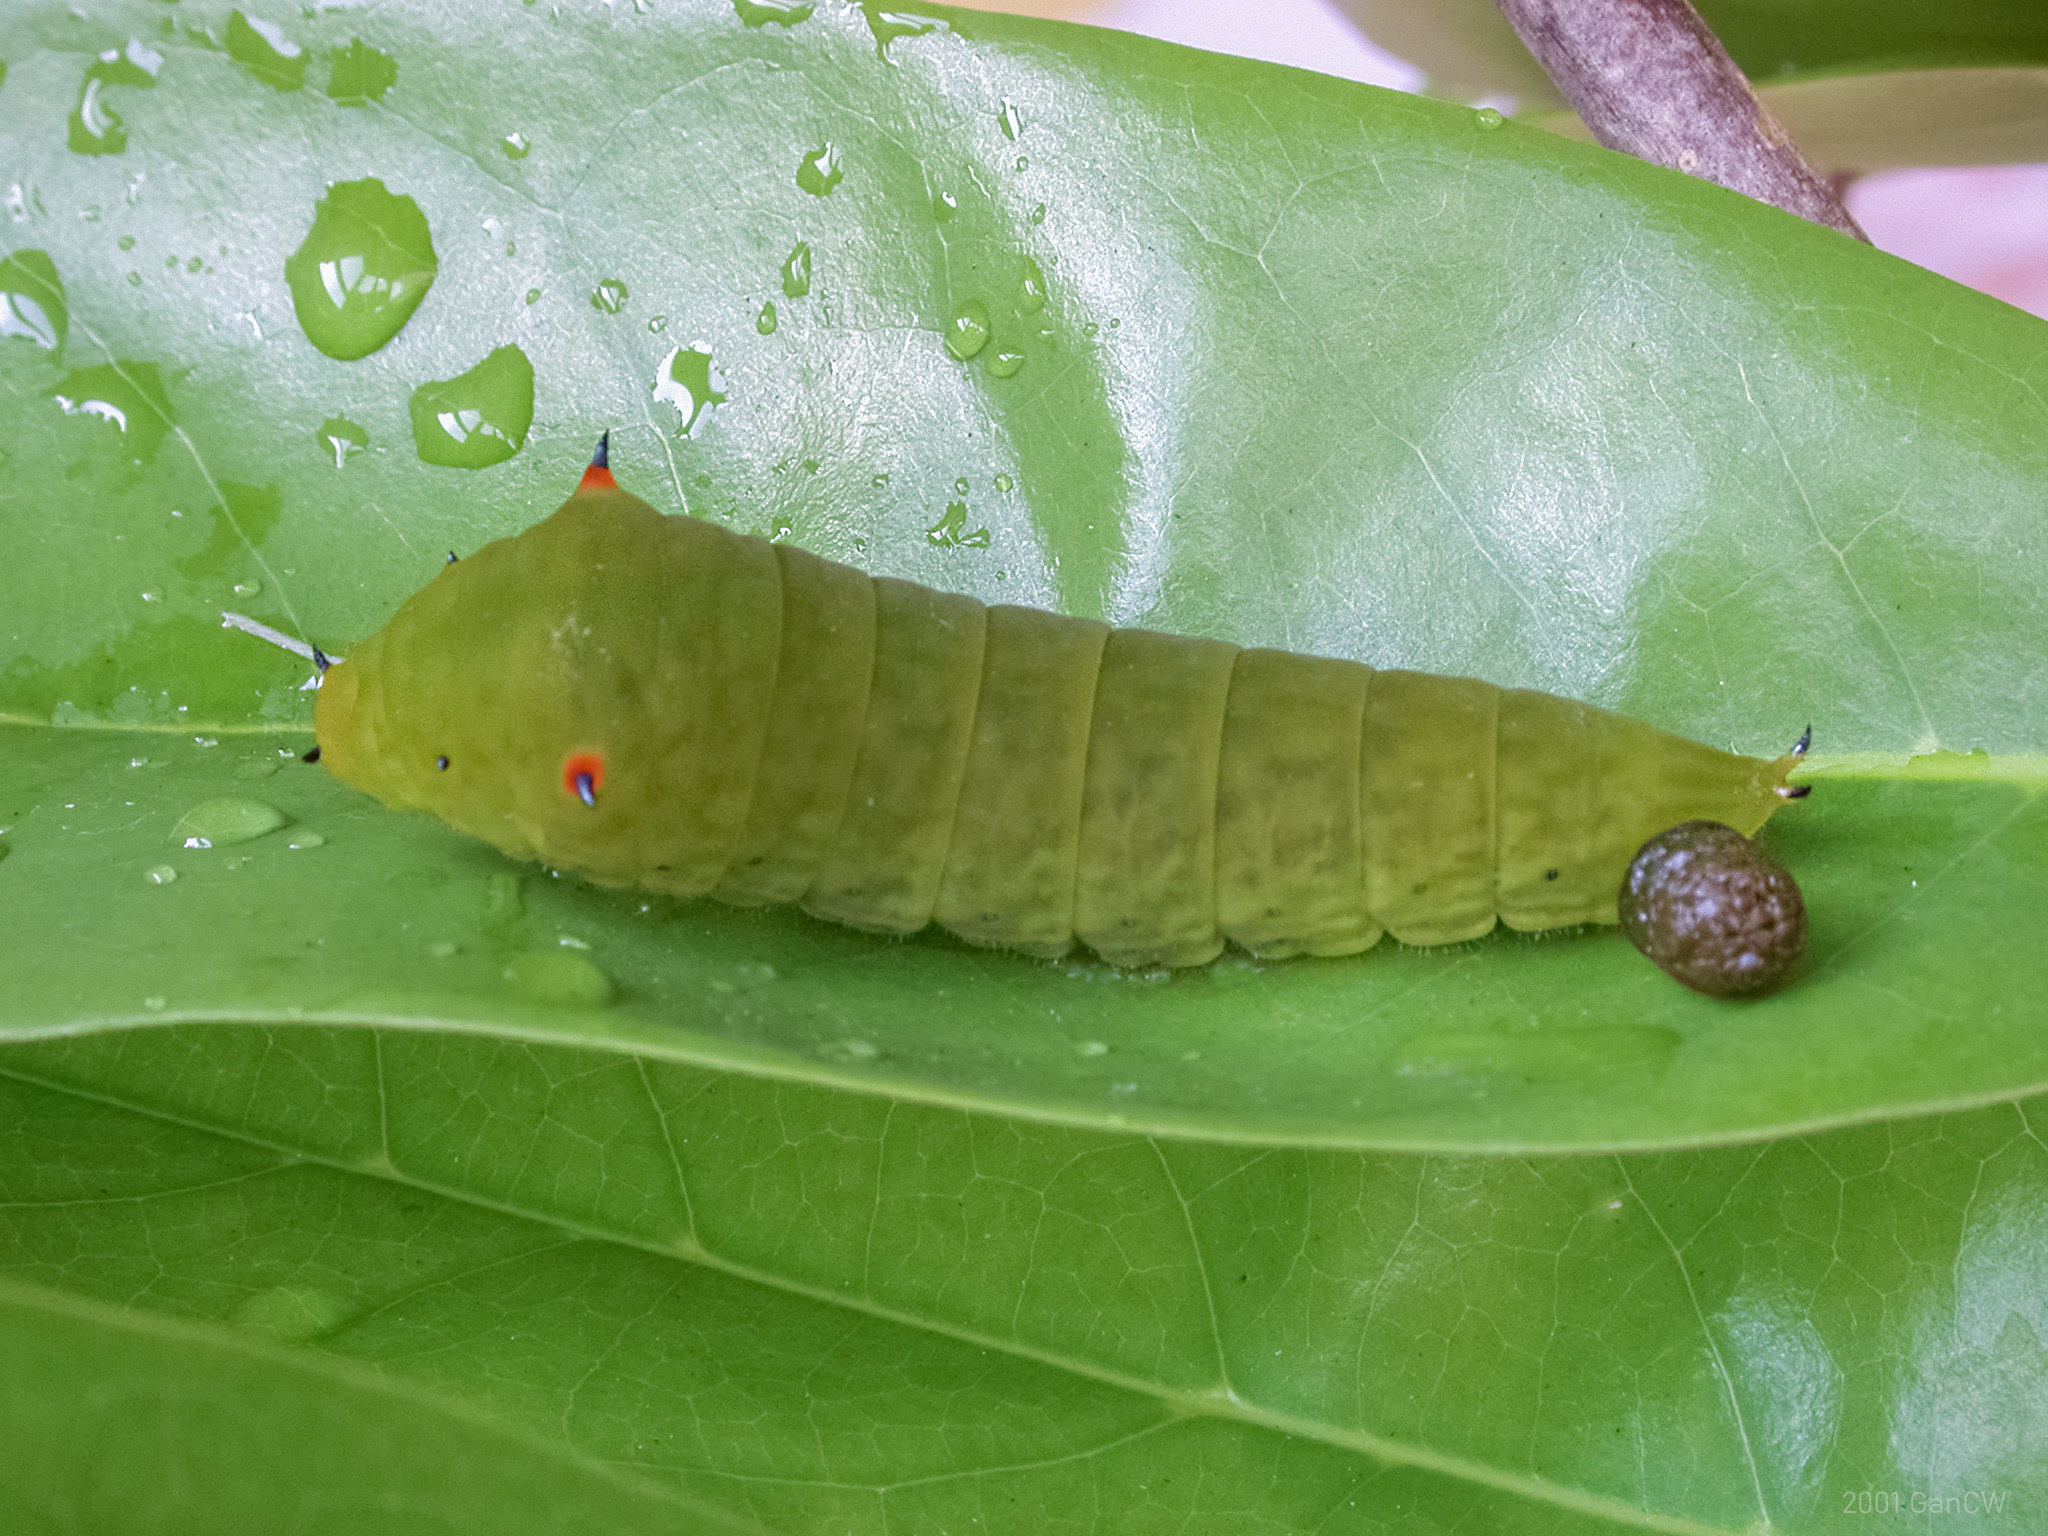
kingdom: Animalia
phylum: Arthropoda
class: Insecta
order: Lepidoptera
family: Papilionidae
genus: Graphium
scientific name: Graphium agamemnon
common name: Tailed jay
